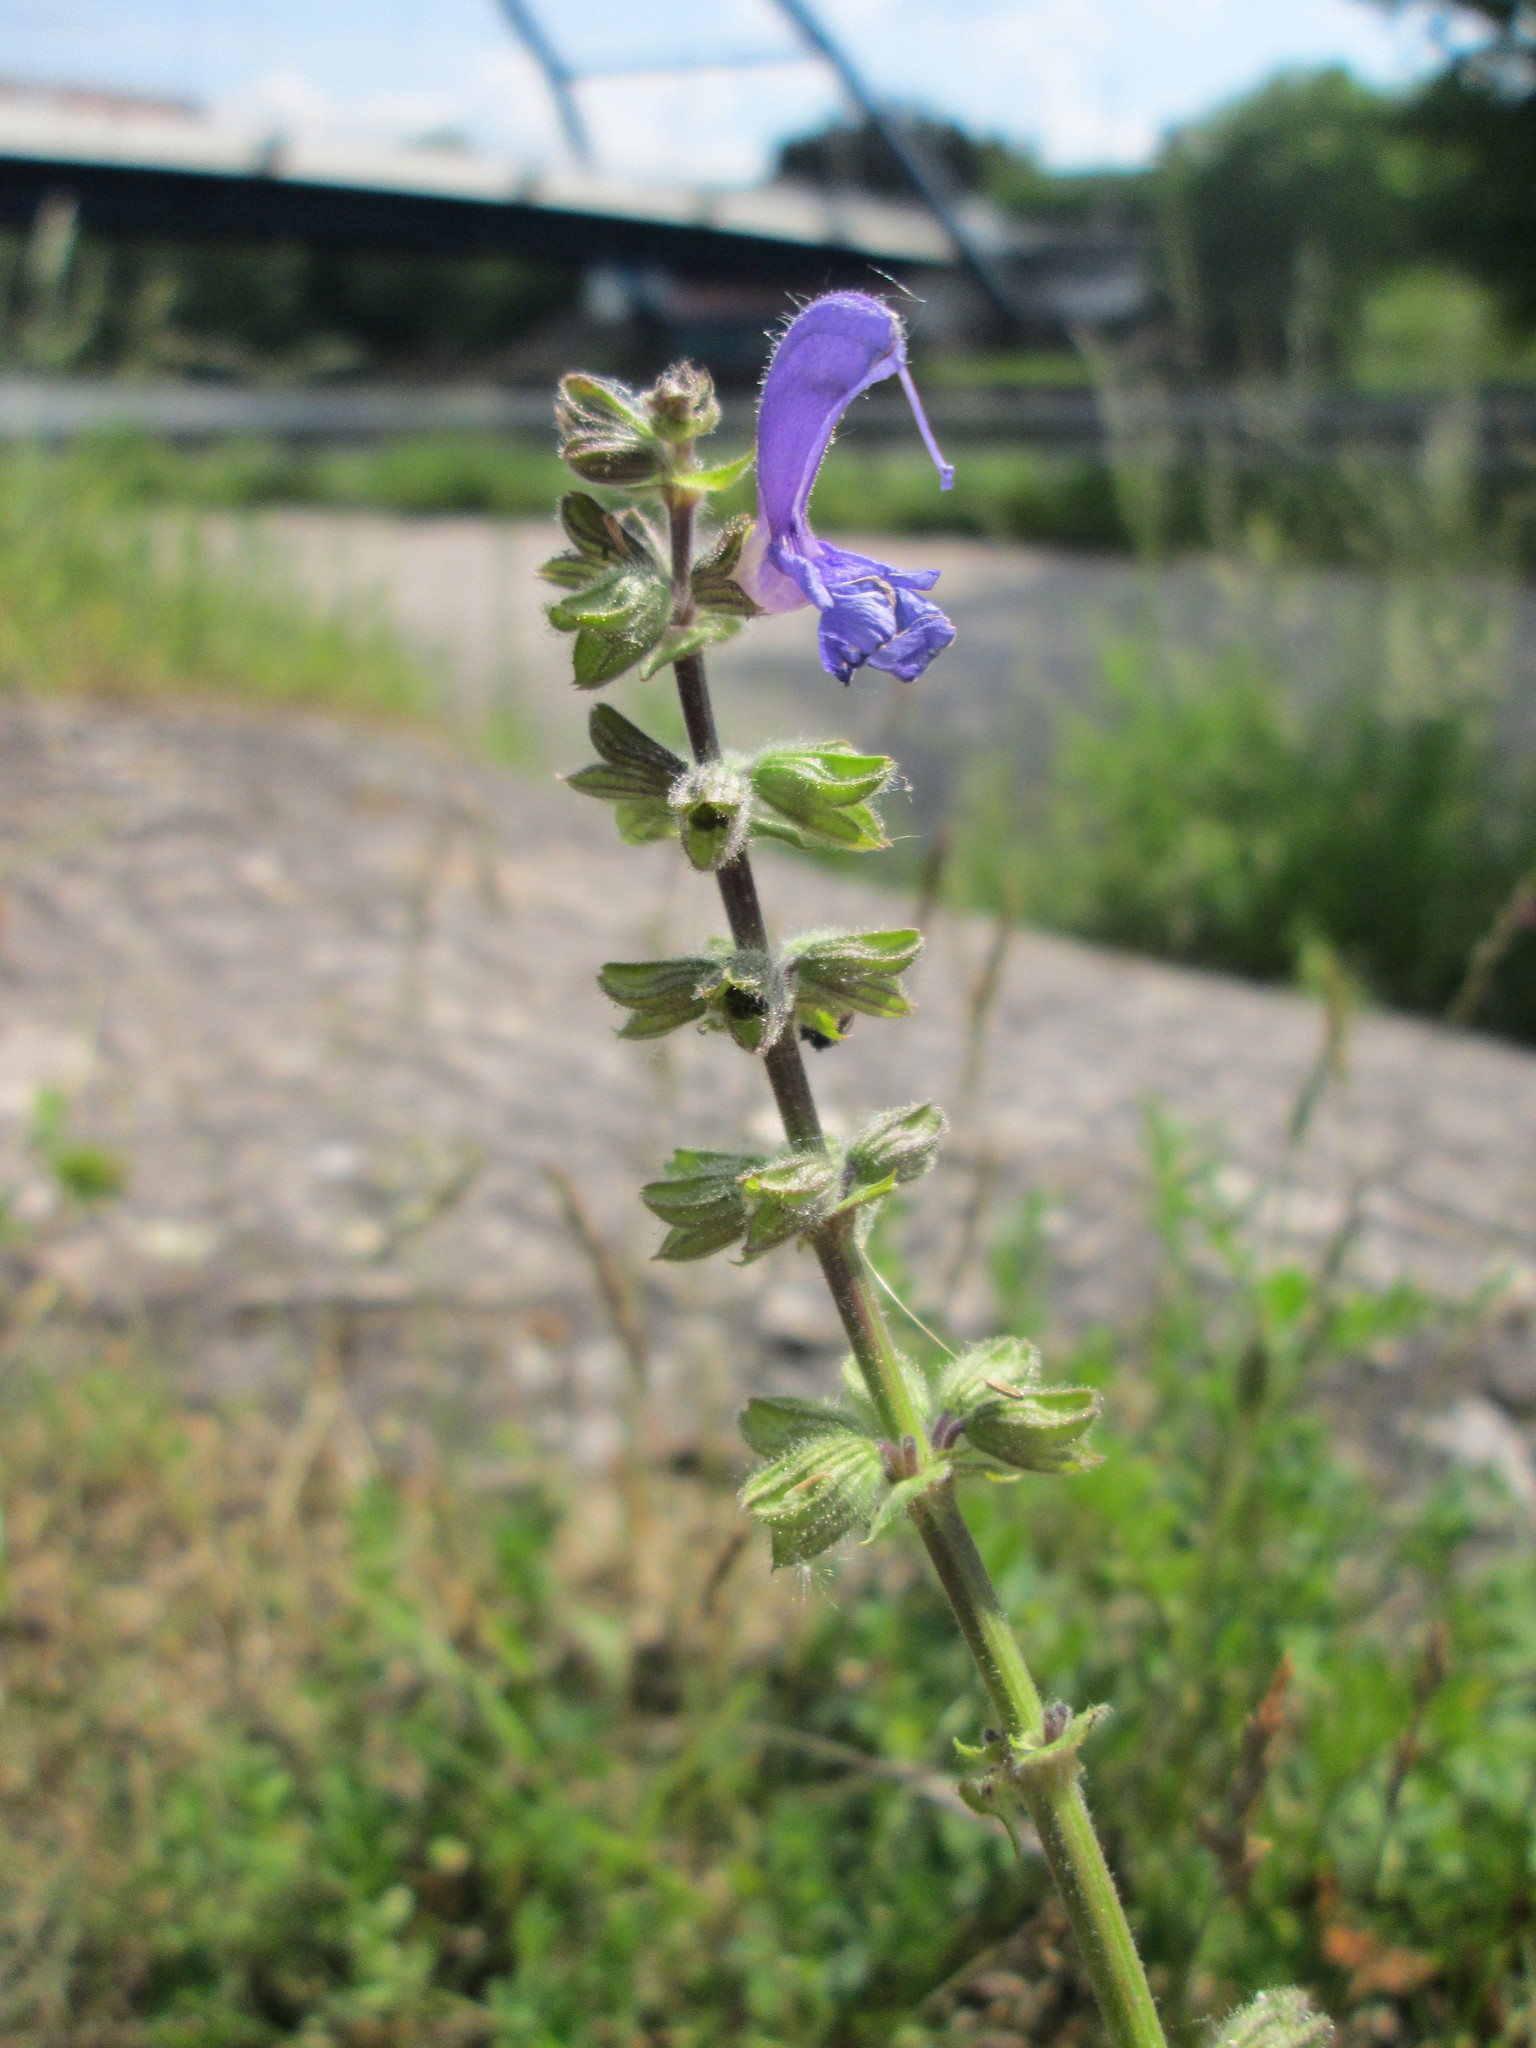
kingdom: Plantae
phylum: Tracheophyta
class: Magnoliopsida
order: Lamiales
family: Lamiaceae
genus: Salvia
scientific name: Salvia pratensis
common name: Meadow sage
